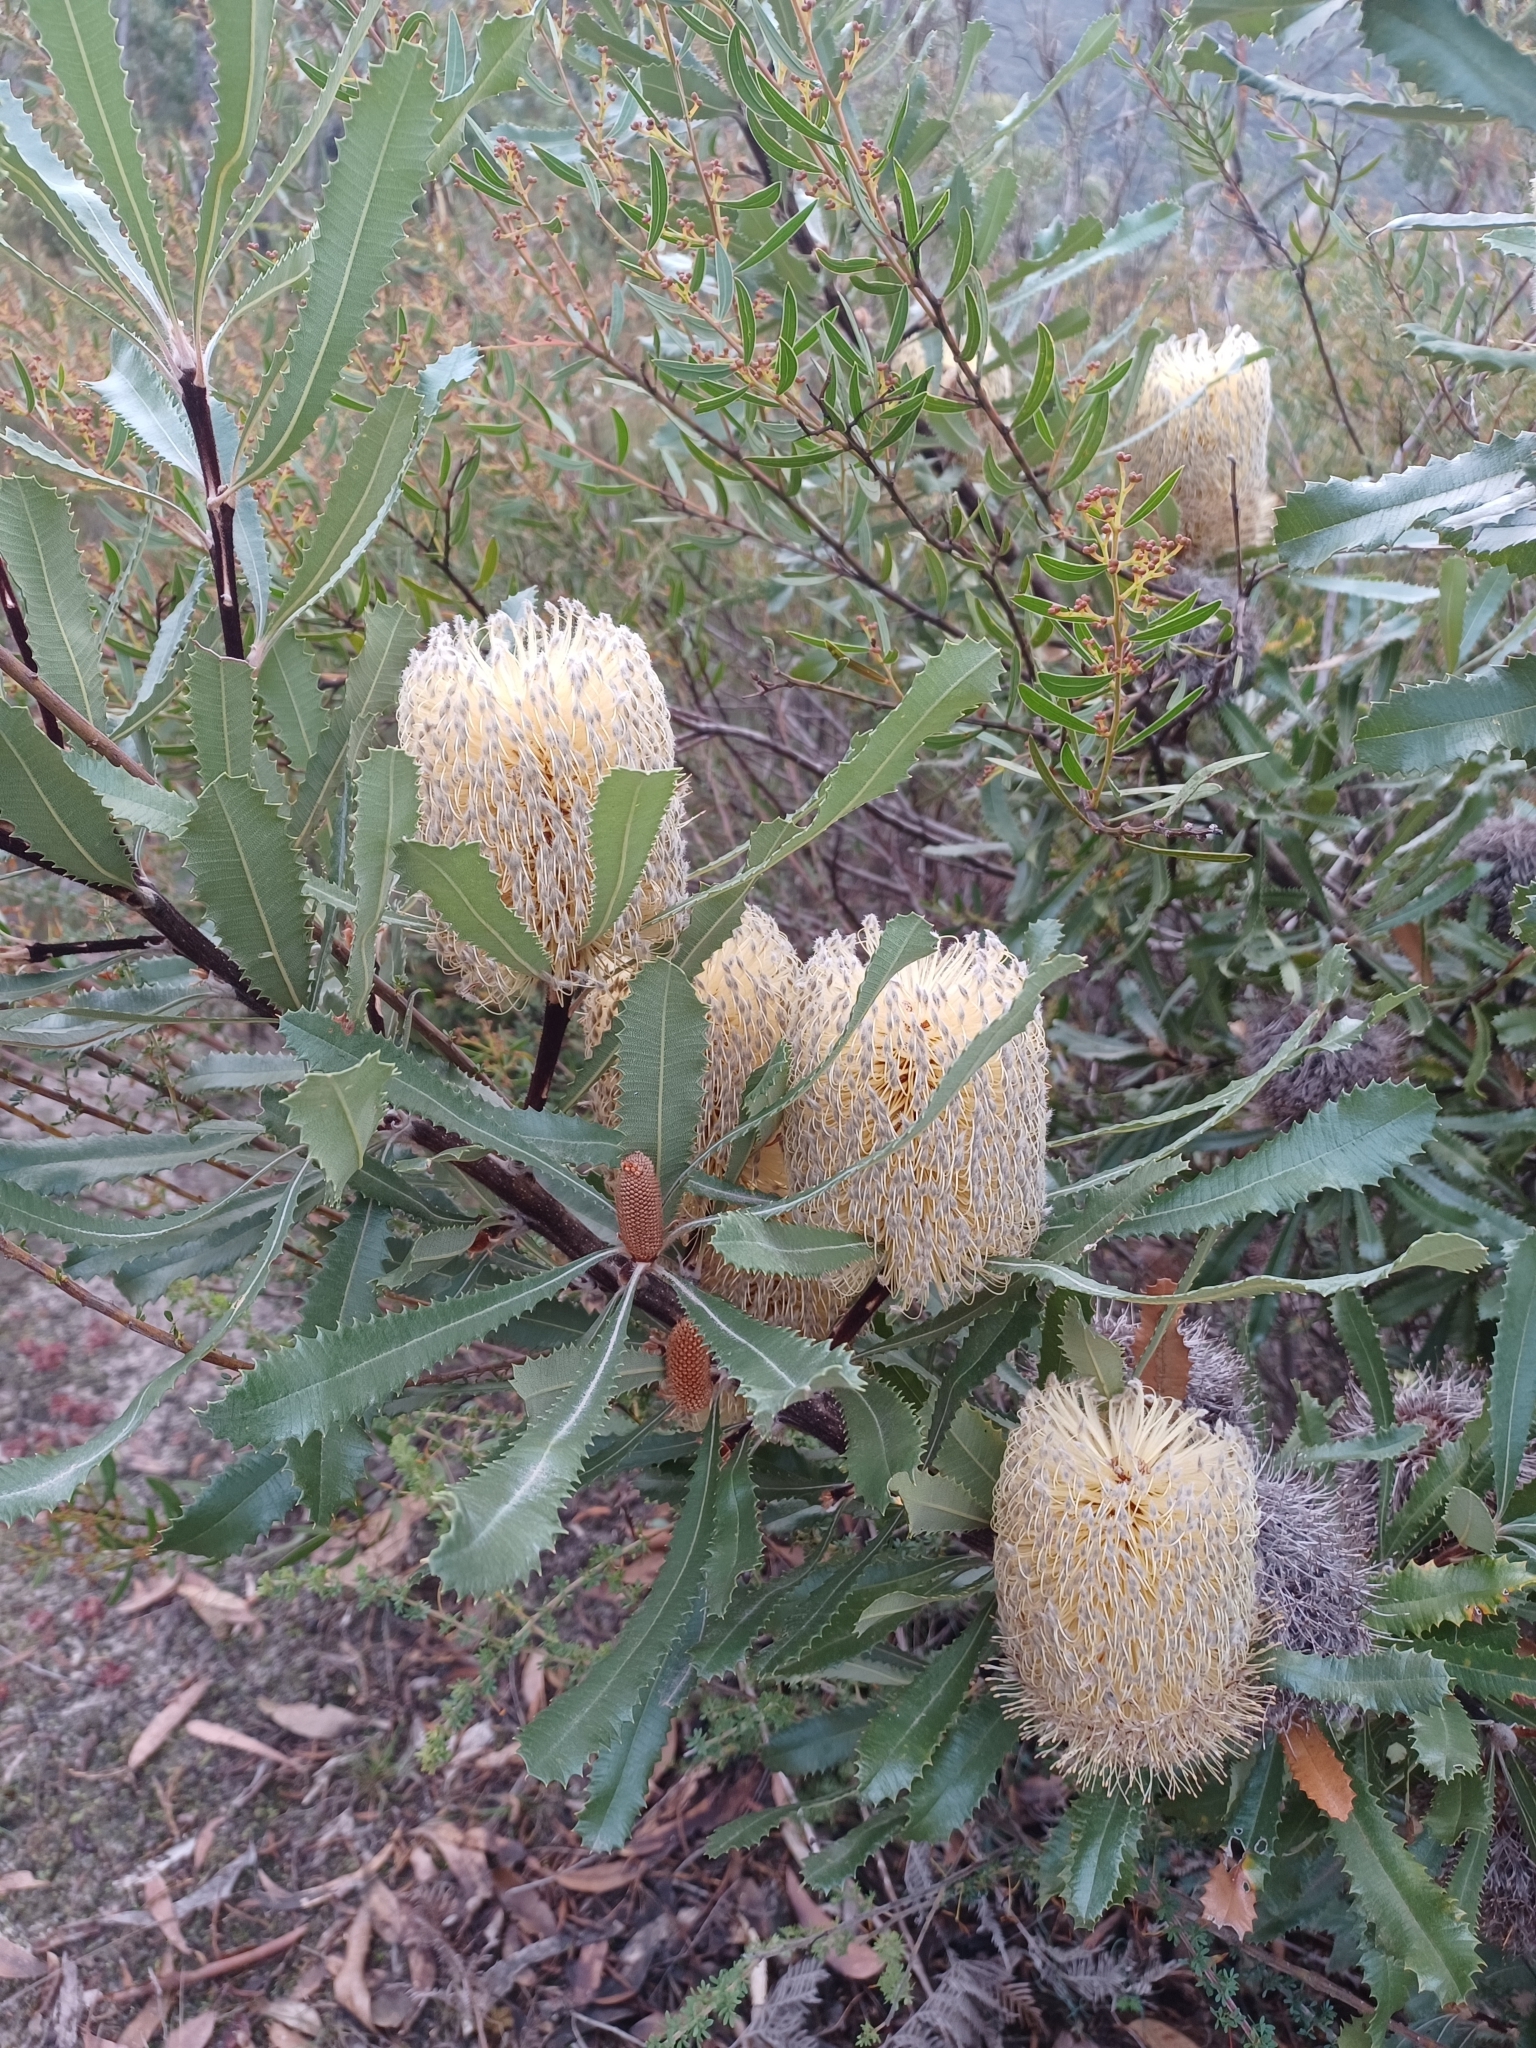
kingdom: Plantae
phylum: Tracheophyta
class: Magnoliopsida
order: Proteales
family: Proteaceae
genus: Banksia
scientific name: Banksia ornata
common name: Desert banksia
